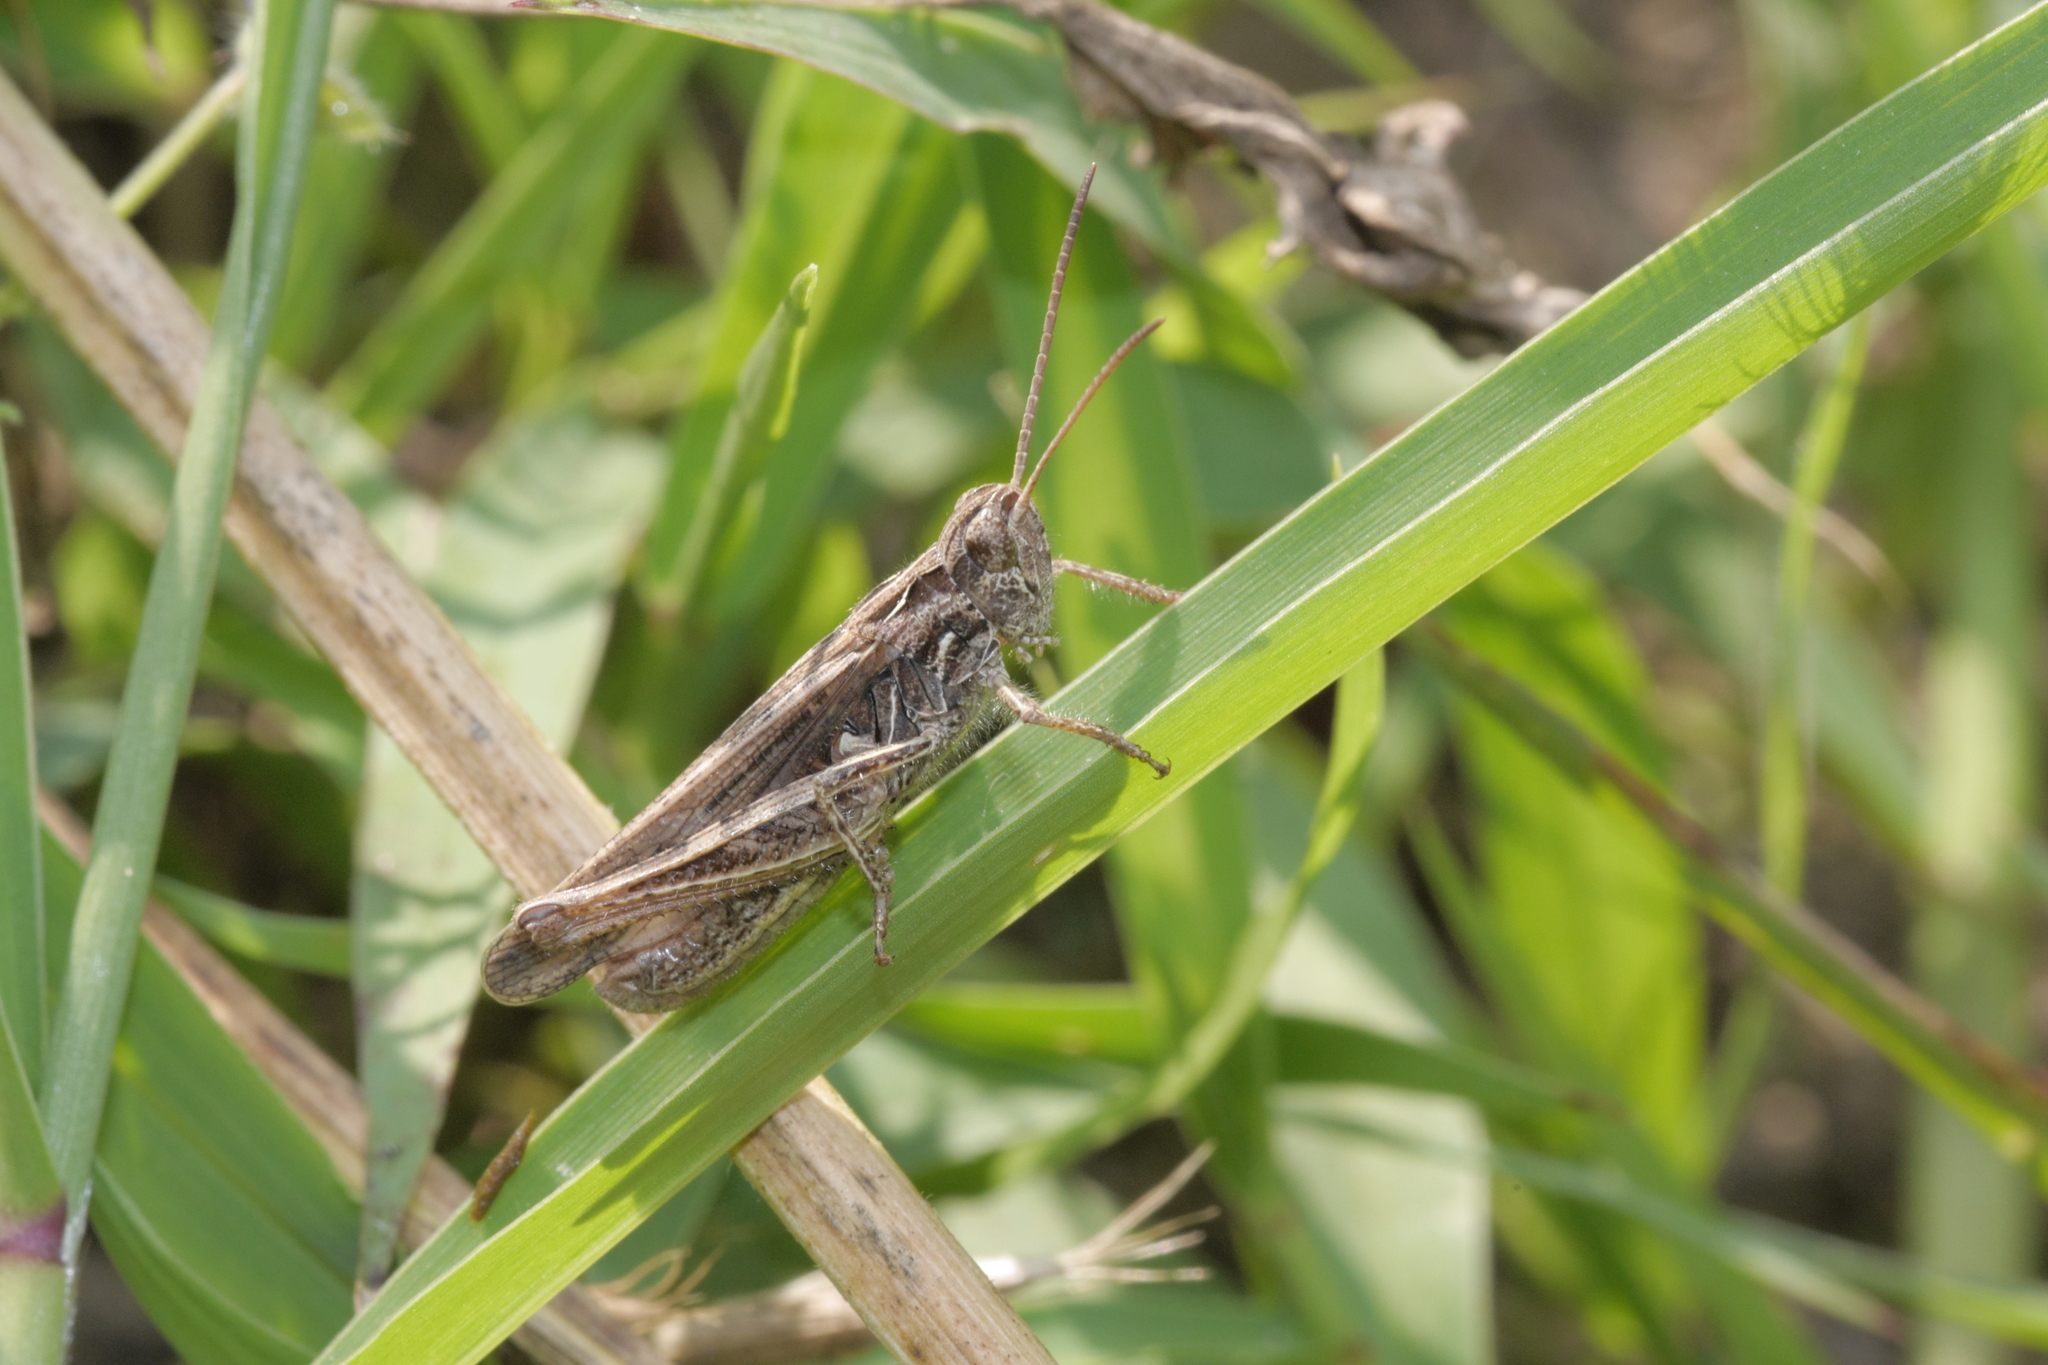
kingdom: Animalia
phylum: Arthropoda
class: Insecta
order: Orthoptera
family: Acrididae
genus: Chorthippus
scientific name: Chorthippus biguttulus
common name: Bow-winged grasshopper
